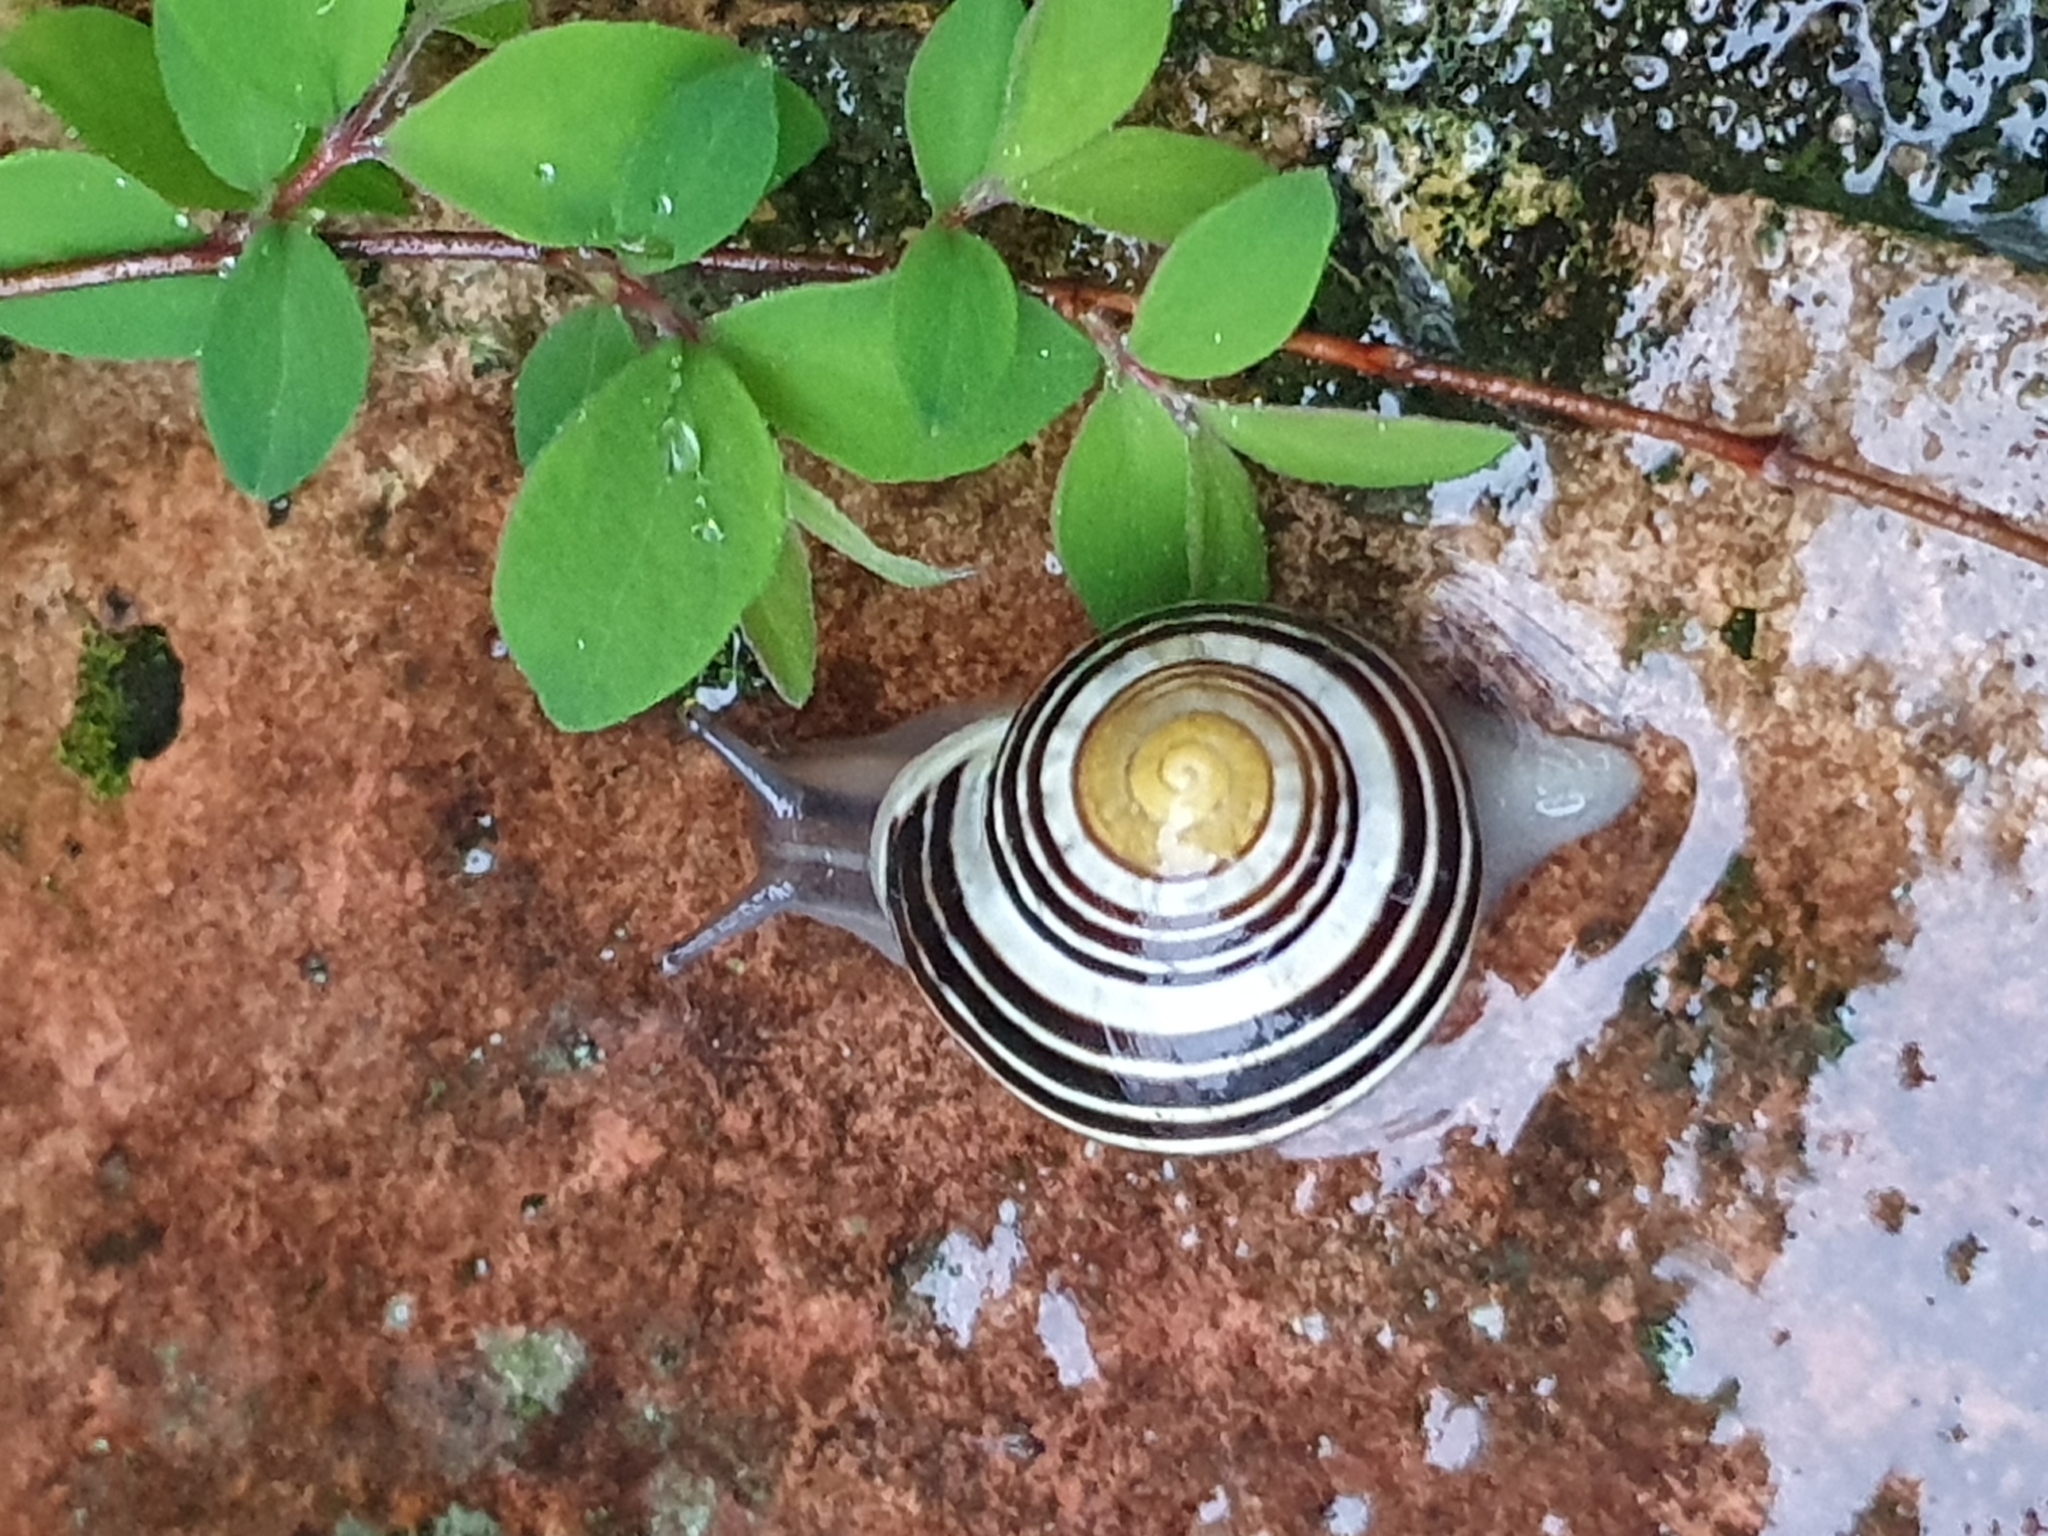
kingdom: Animalia
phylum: Mollusca
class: Gastropoda
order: Stylommatophora
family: Helicidae
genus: Cepaea
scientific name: Cepaea hortensis
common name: White-lip gardensnail
